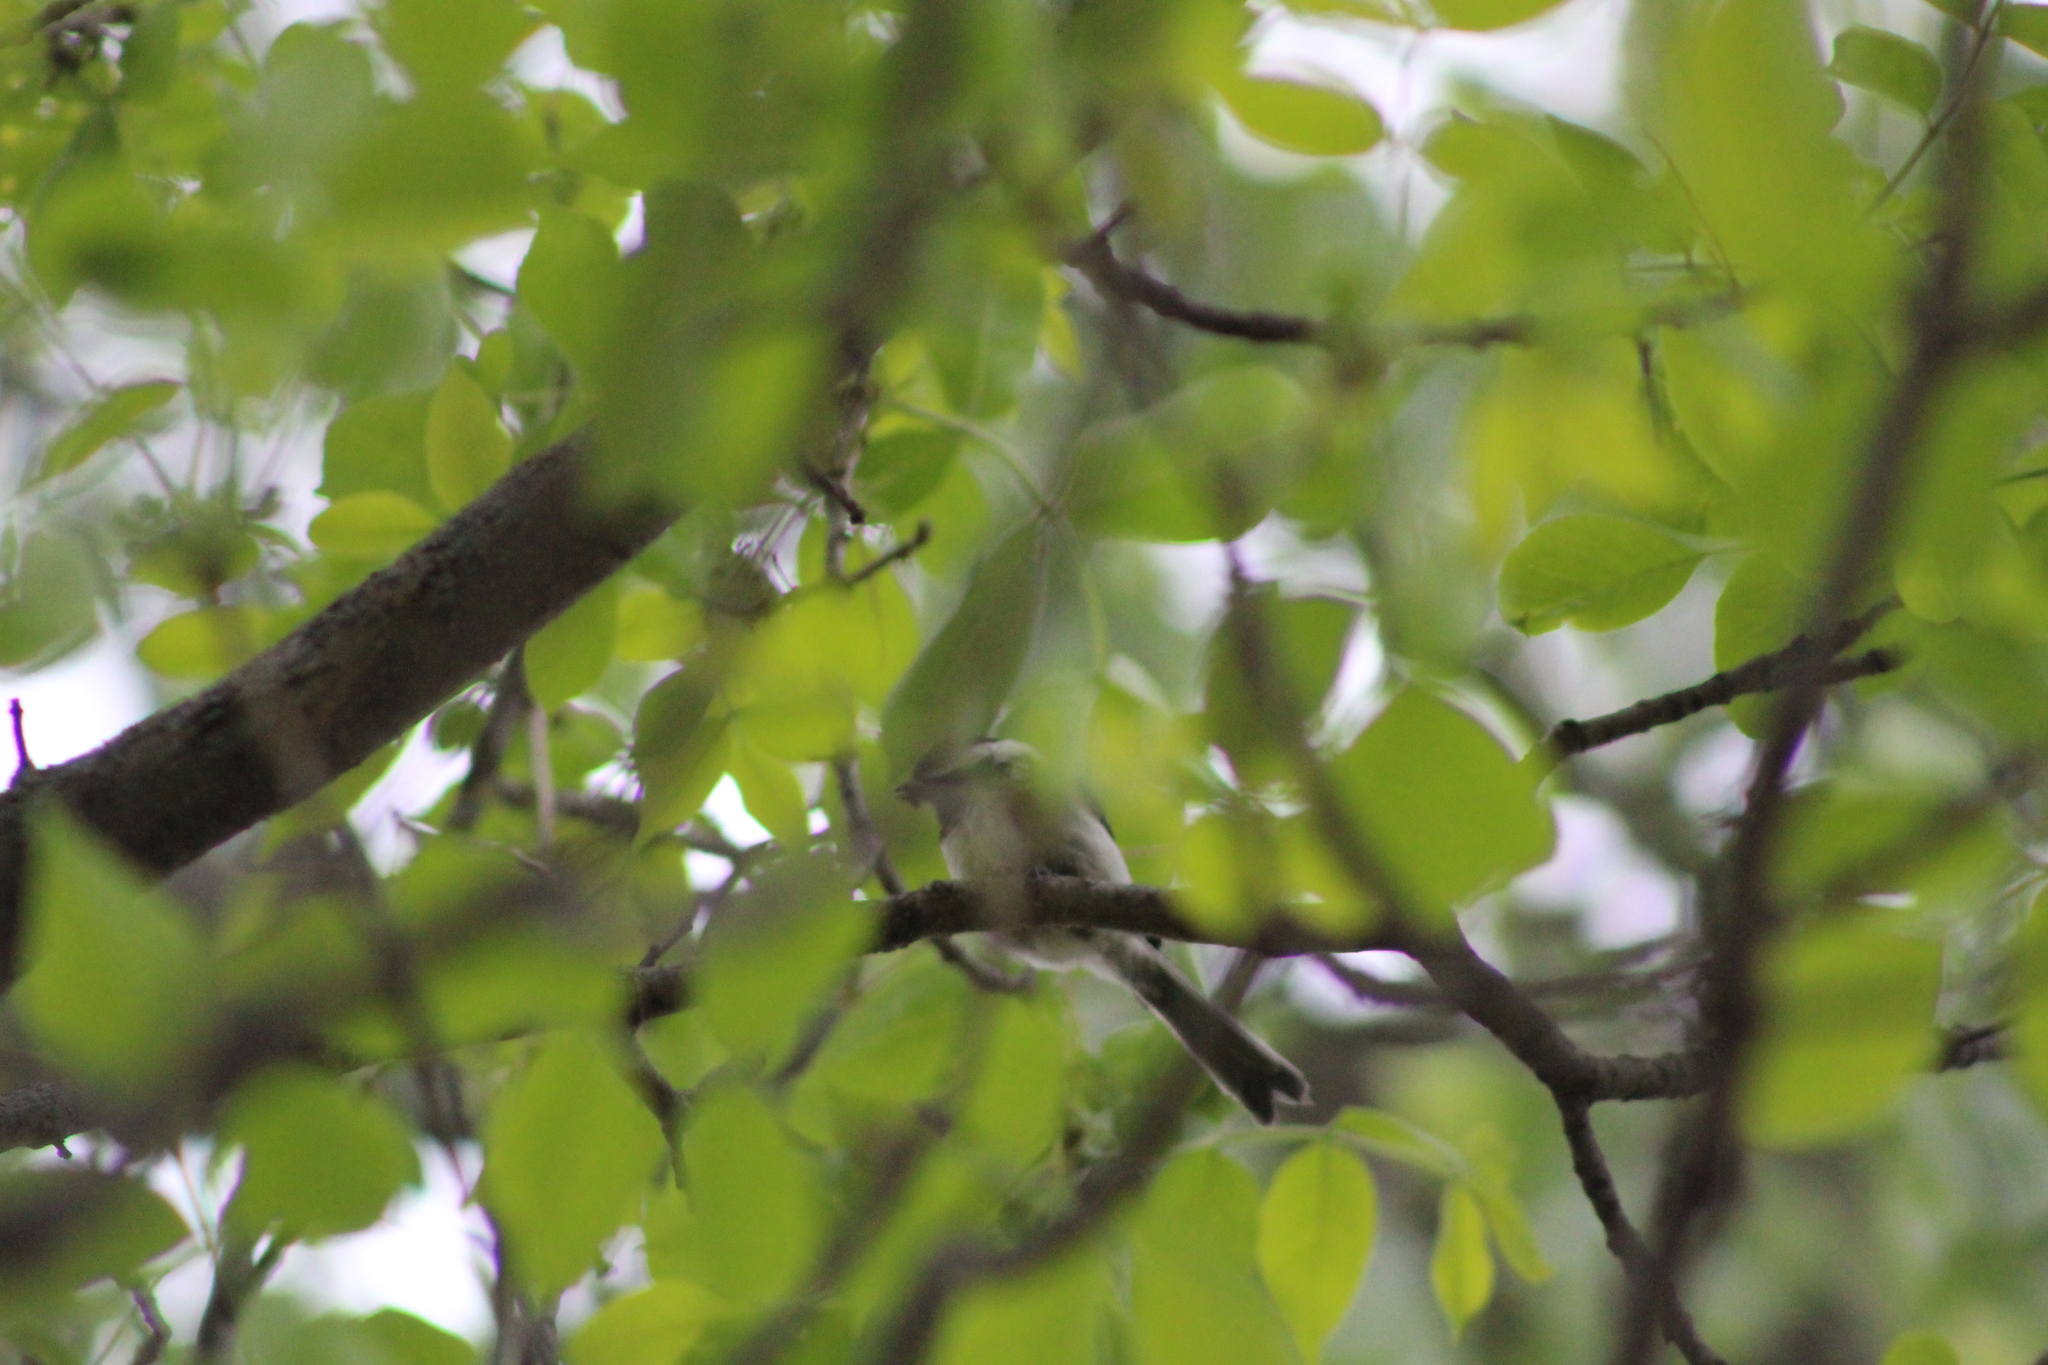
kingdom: Animalia
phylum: Chordata
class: Aves
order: Passeriformes
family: Paridae
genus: Poecile
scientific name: Poecile atricapillus
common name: Black-capped chickadee
